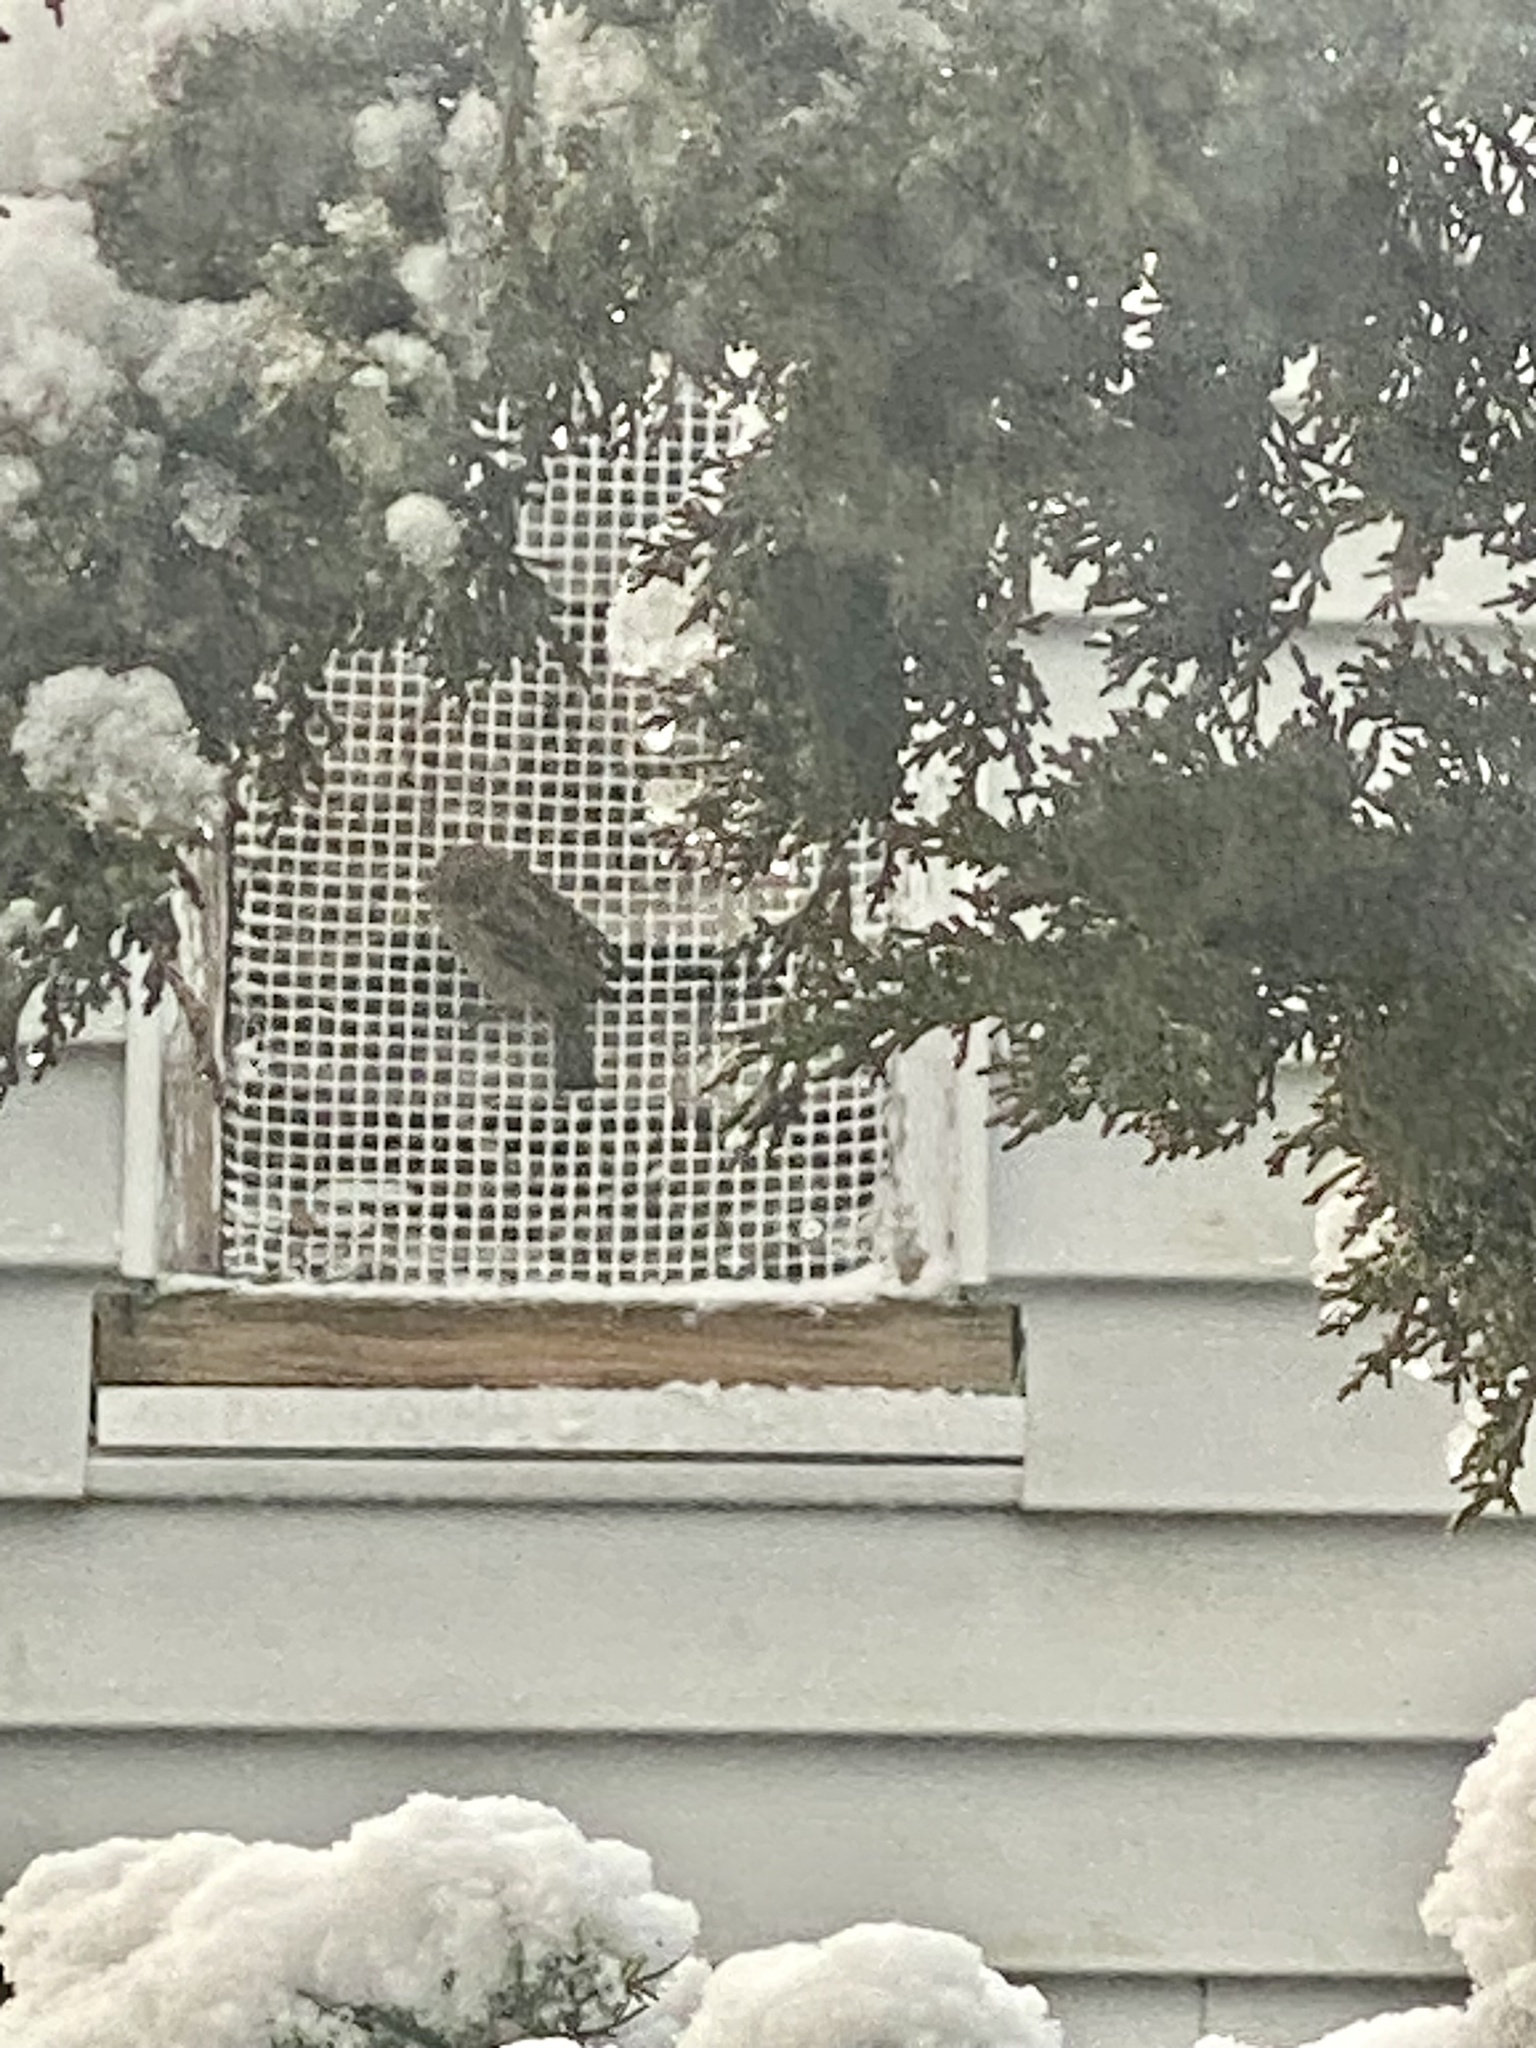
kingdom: Animalia
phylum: Chordata
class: Aves
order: Passeriformes
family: Passeridae
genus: Passer
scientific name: Passer domesticus
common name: House sparrow
